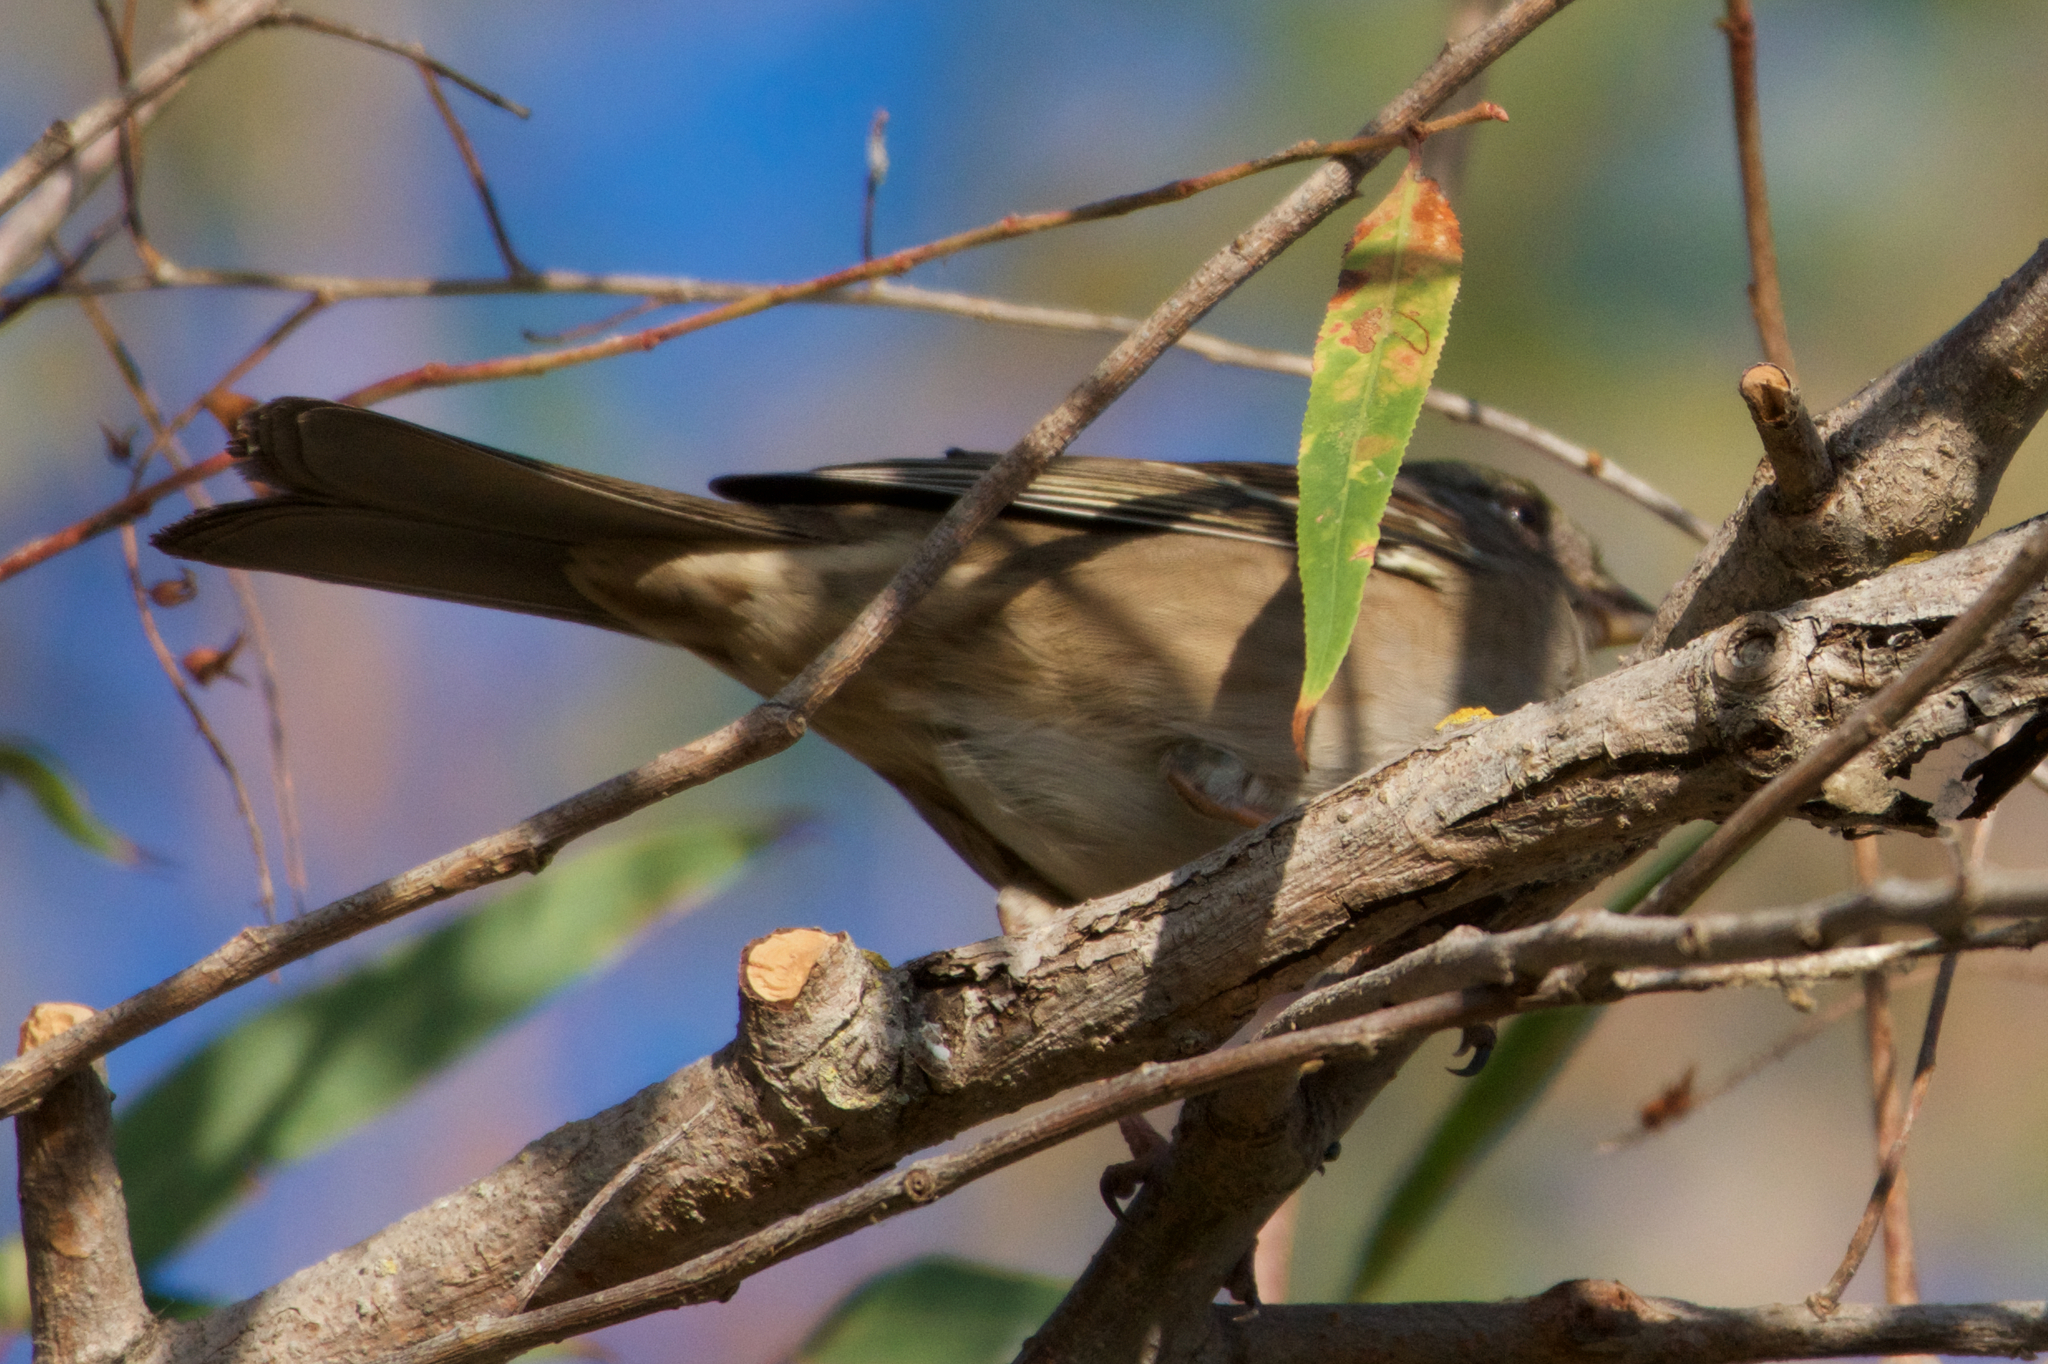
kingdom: Animalia
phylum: Chordata
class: Aves
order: Passeriformes
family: Passerellidae
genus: Zonotrichia
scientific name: Zonotrichia atricapilla
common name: Golden-crowned sparrow
